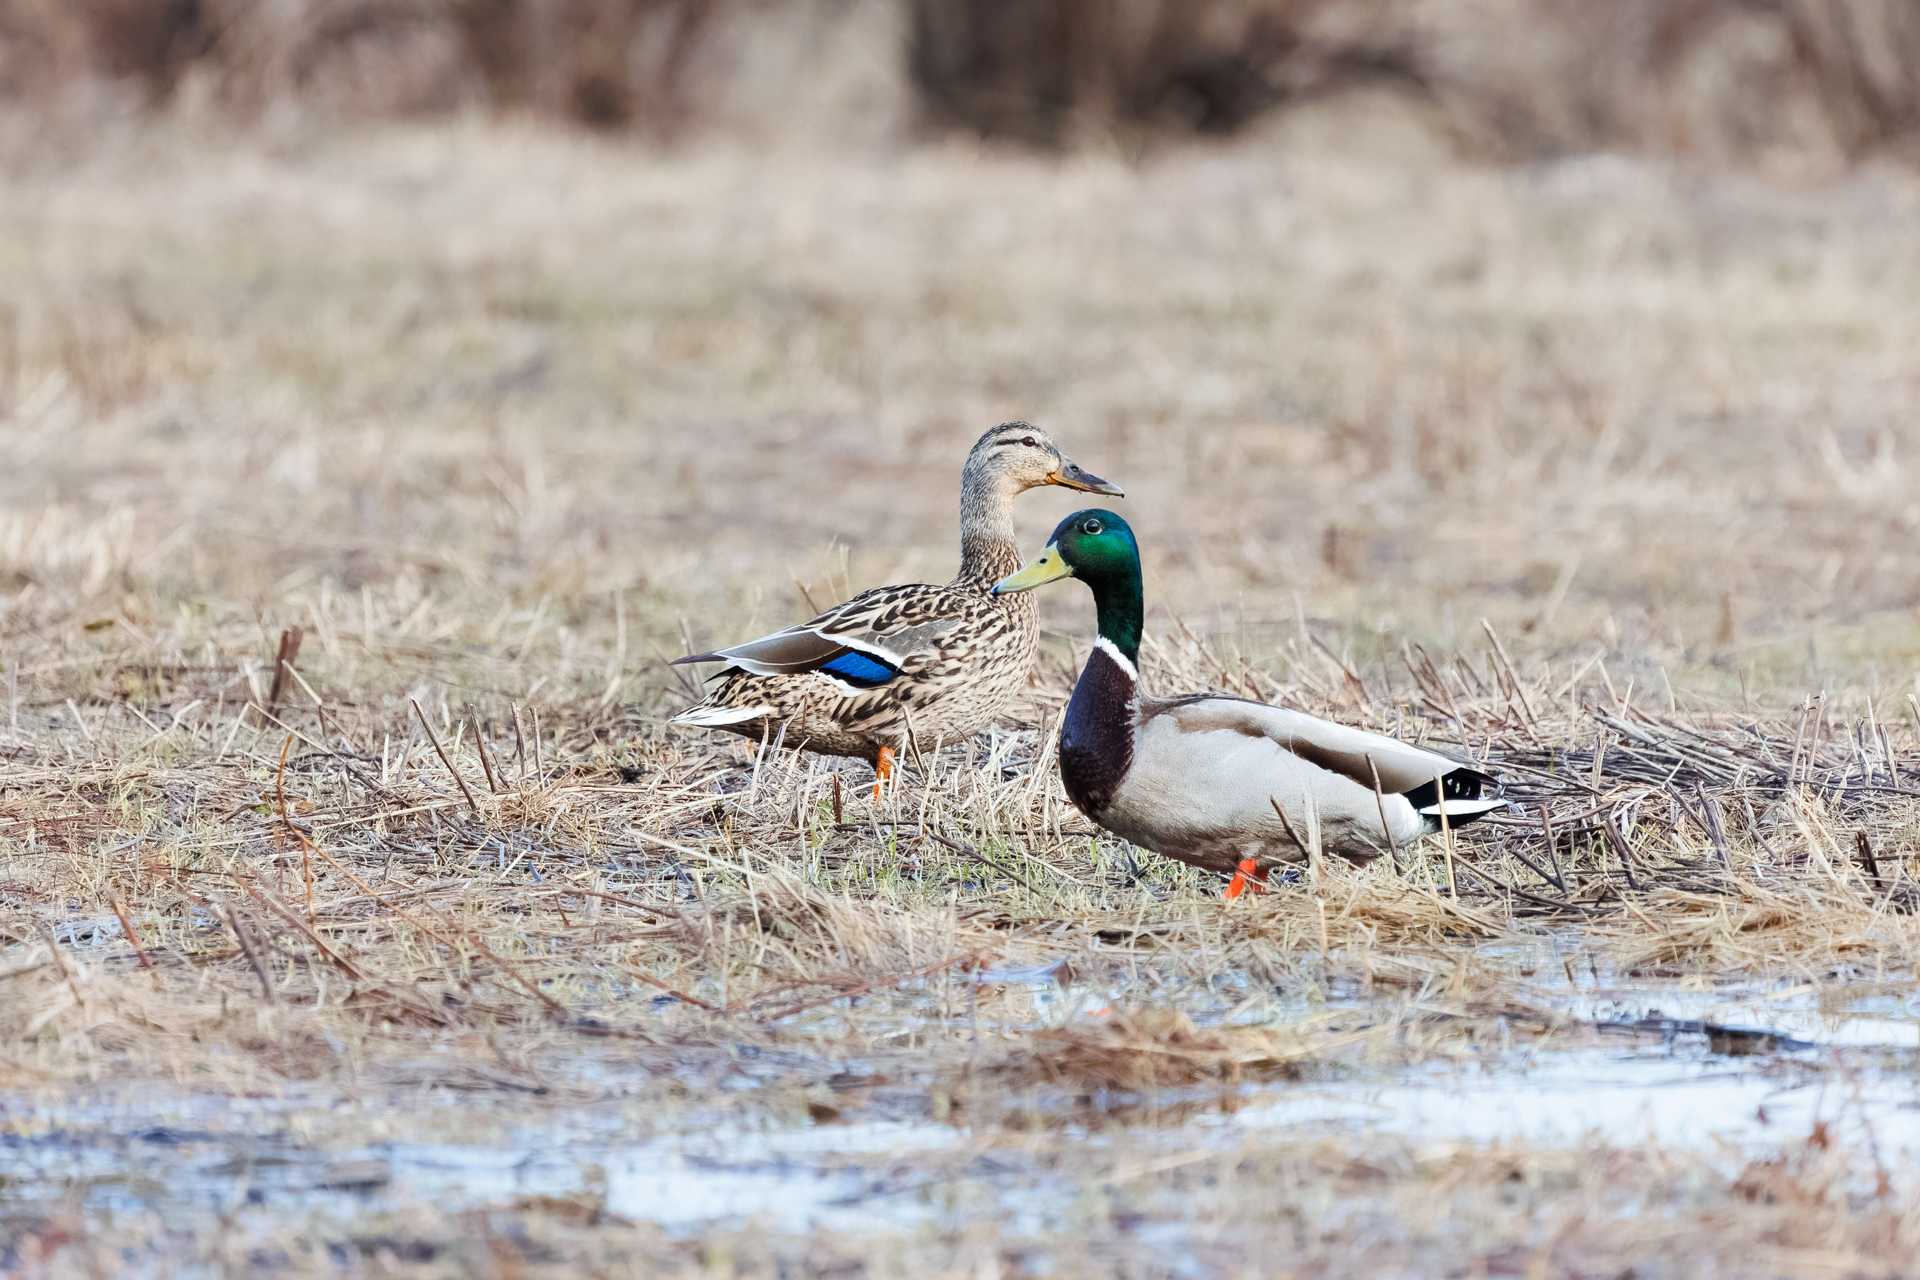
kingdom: Animalia
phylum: Chordata
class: Aves
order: Anseriformes
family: Anatidae
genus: Anas
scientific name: Anas platyrhynchos
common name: Mallard
